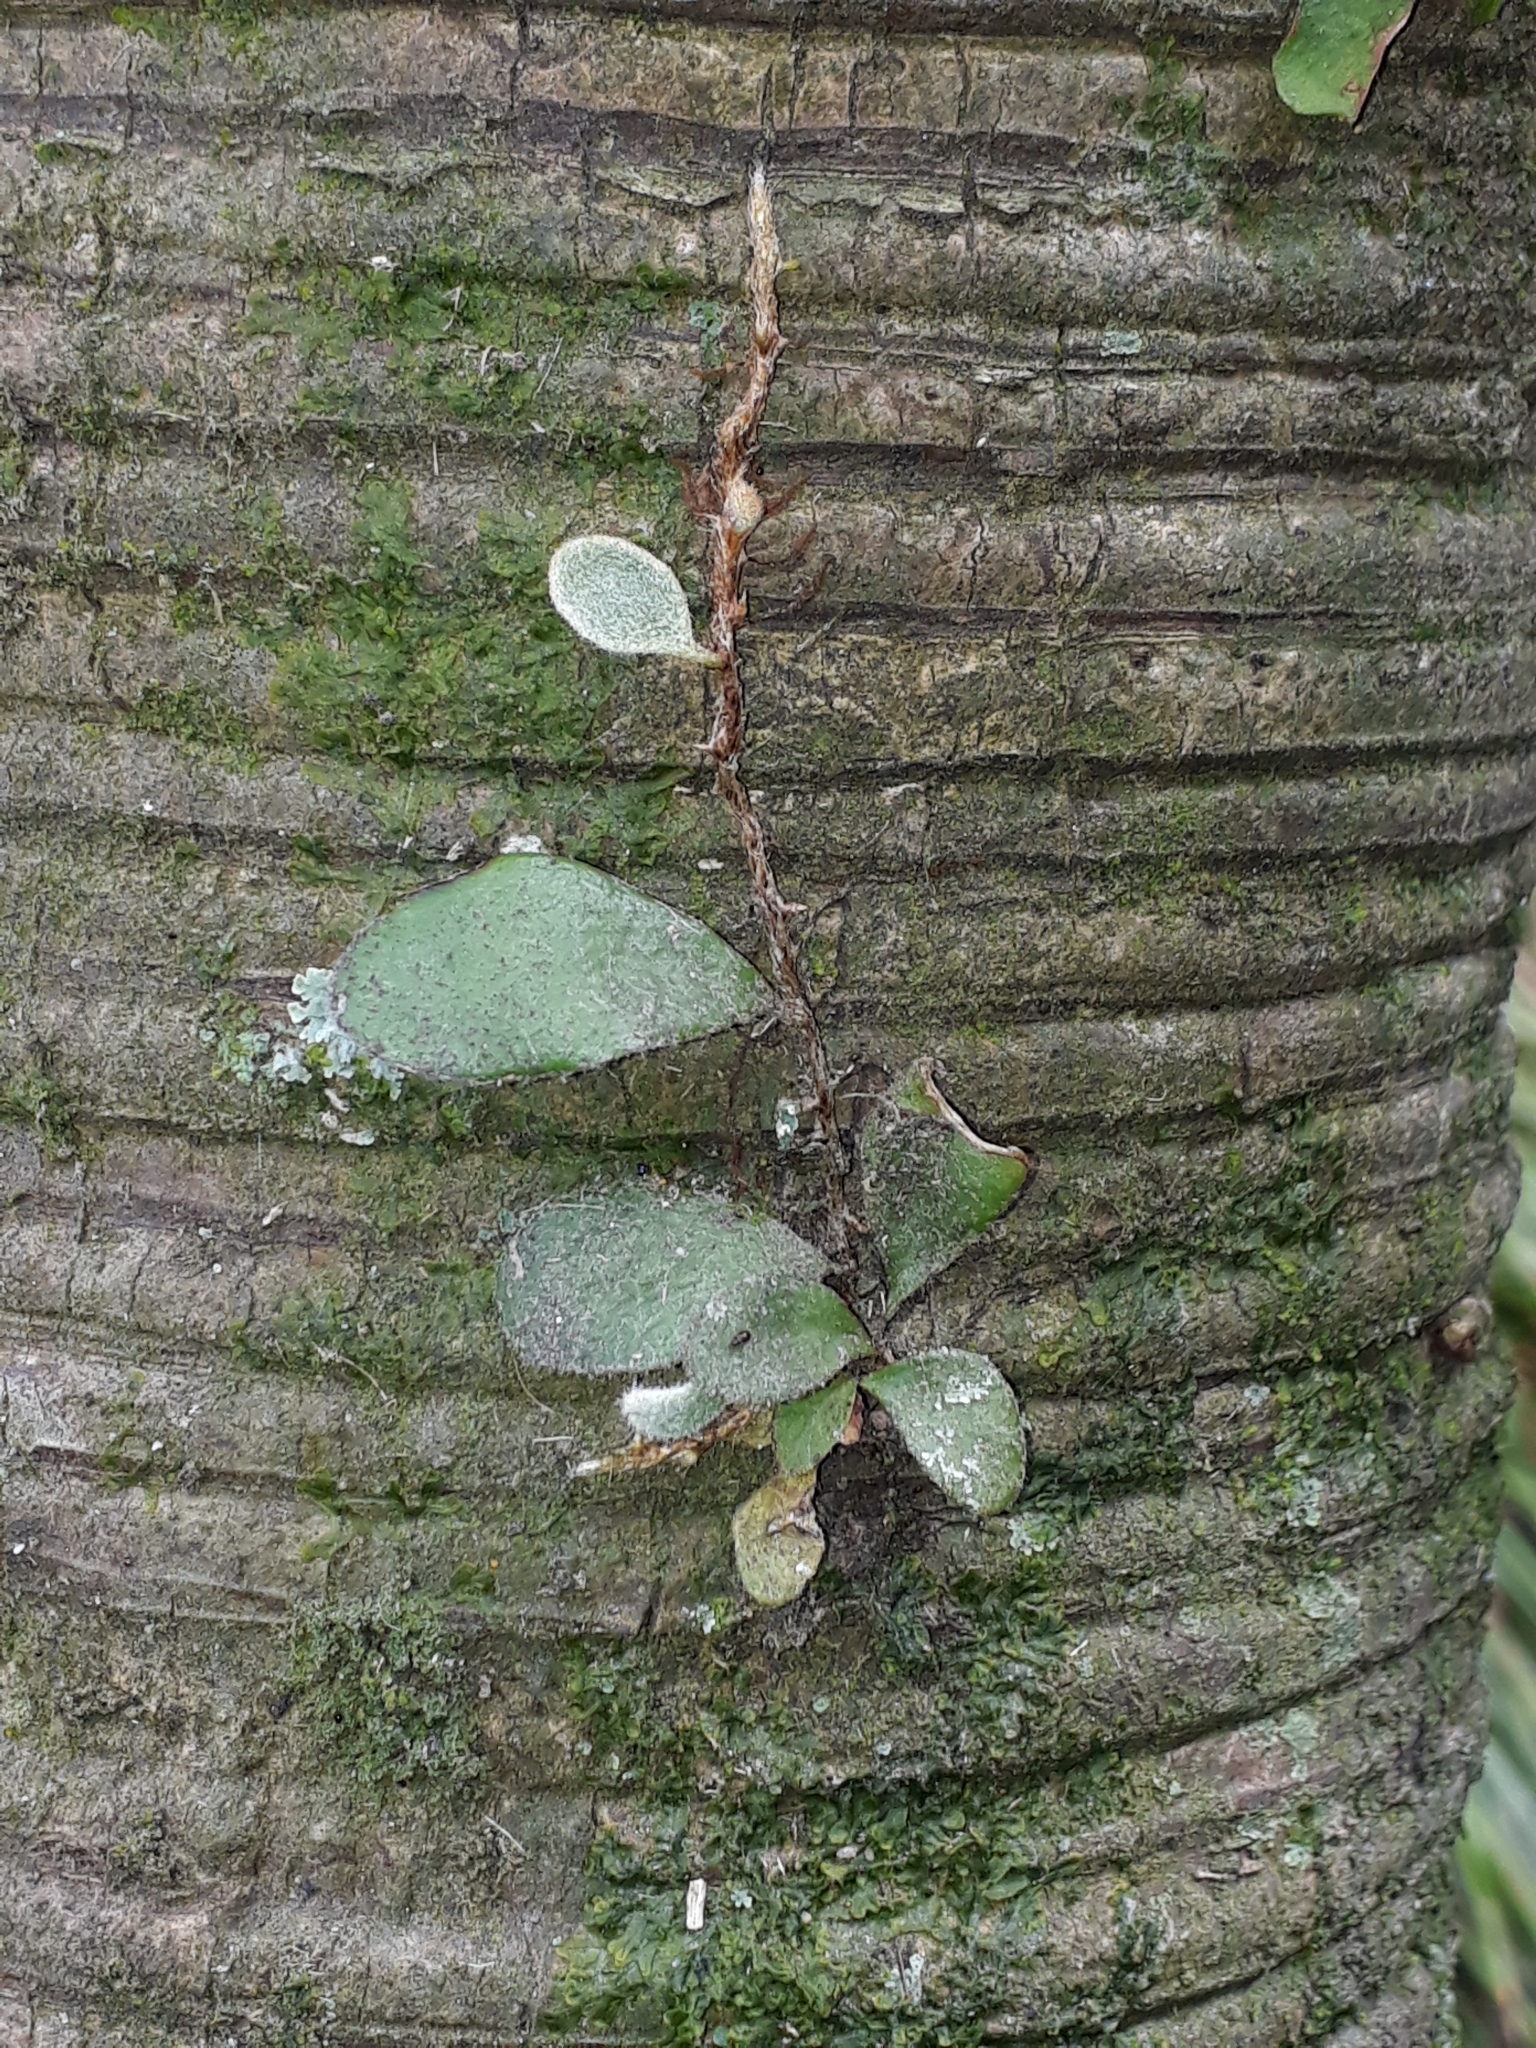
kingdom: Plantae
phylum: Tracheophyta
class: Polypodiopsida
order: Polypodiales
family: Polypodiaceae
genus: Pyrrosia
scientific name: Pyrrosia eleagnifolia
